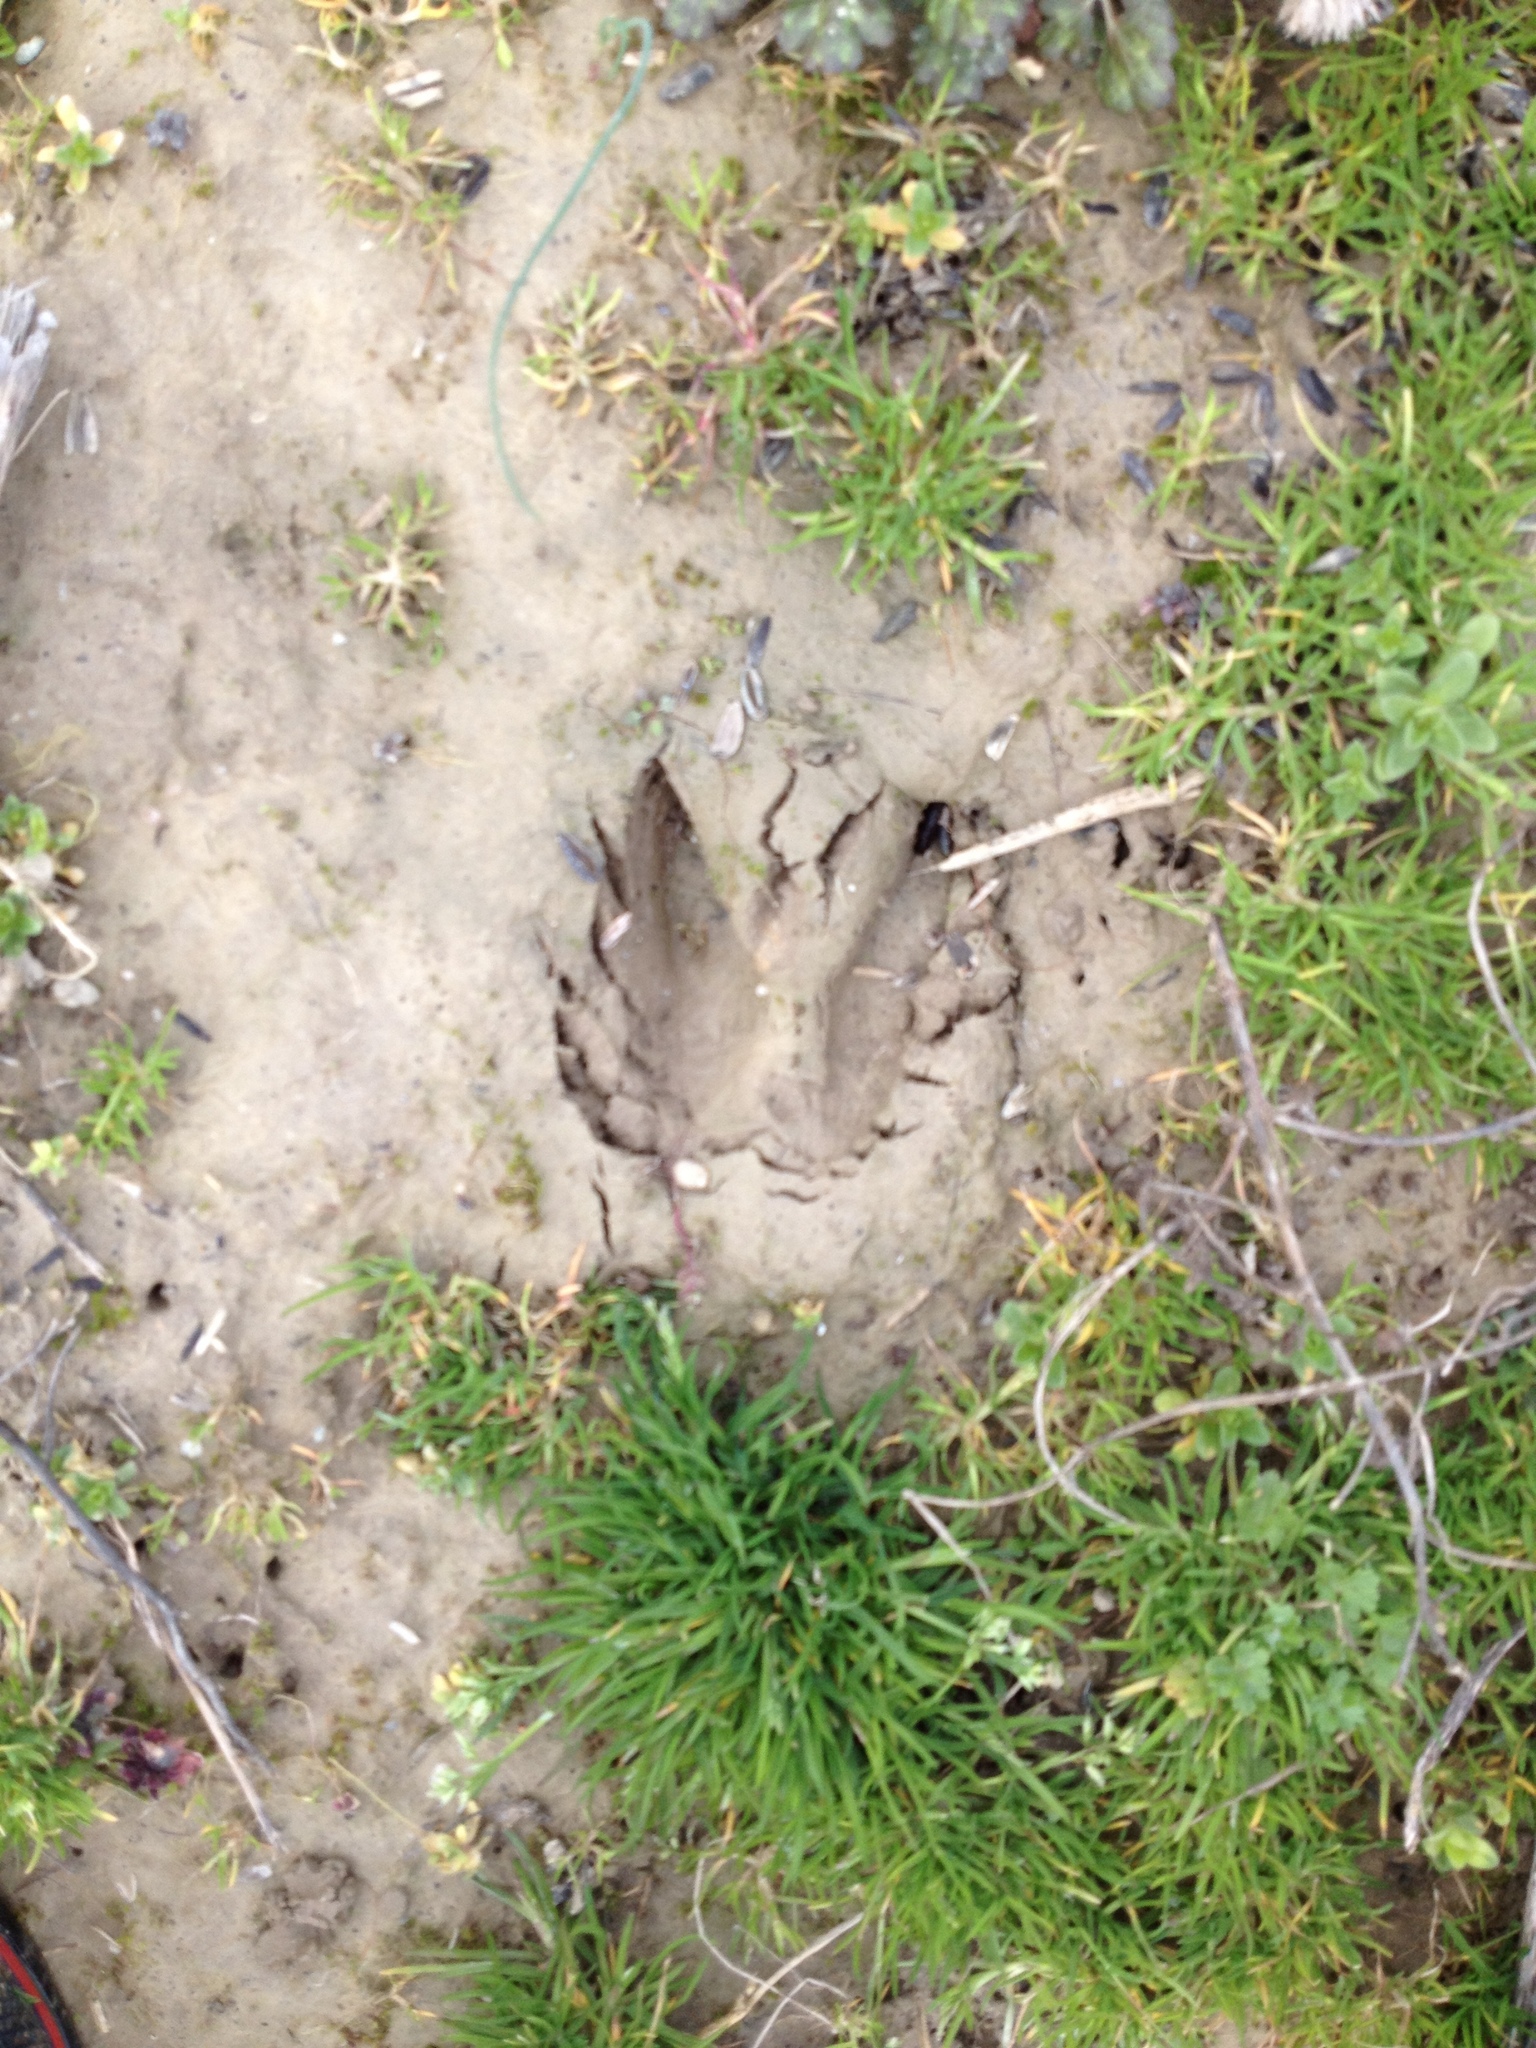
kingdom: Animalia
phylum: Chordata
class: Mammalia
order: Artiodactyla
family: Cervidae
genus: Odocoileus
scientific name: Odocoileus virginianus
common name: White-tailed deer
